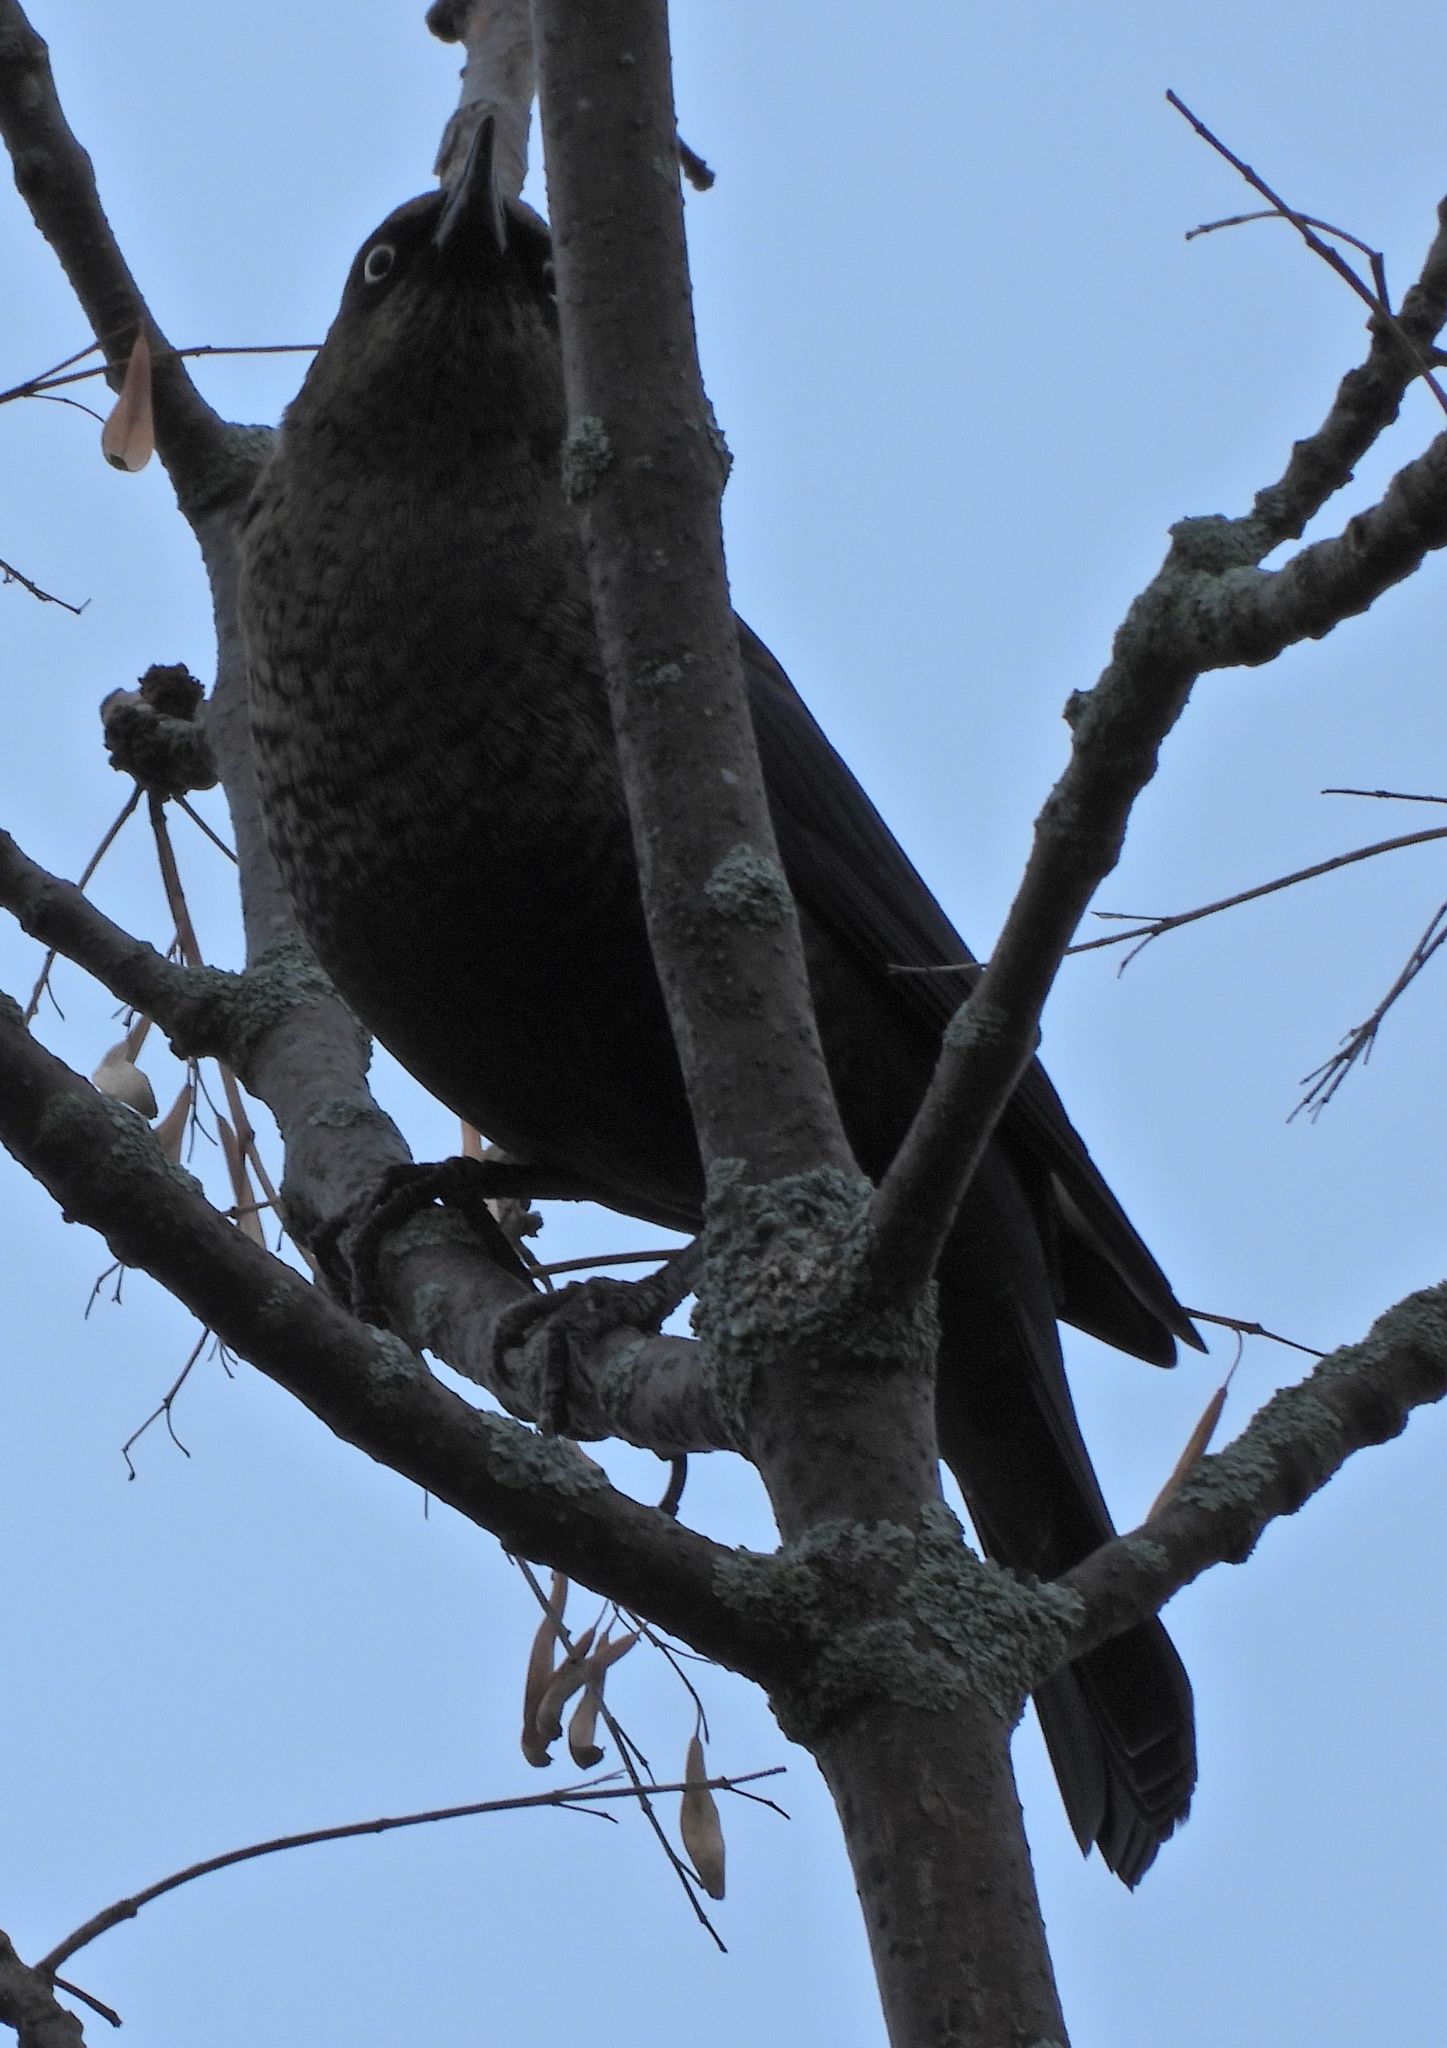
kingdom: Animalia
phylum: Chordata
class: Aves
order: Passeriformes
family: Icteridae
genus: Euphagus
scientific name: Euphagus carolinus
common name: Rusty blackbird
